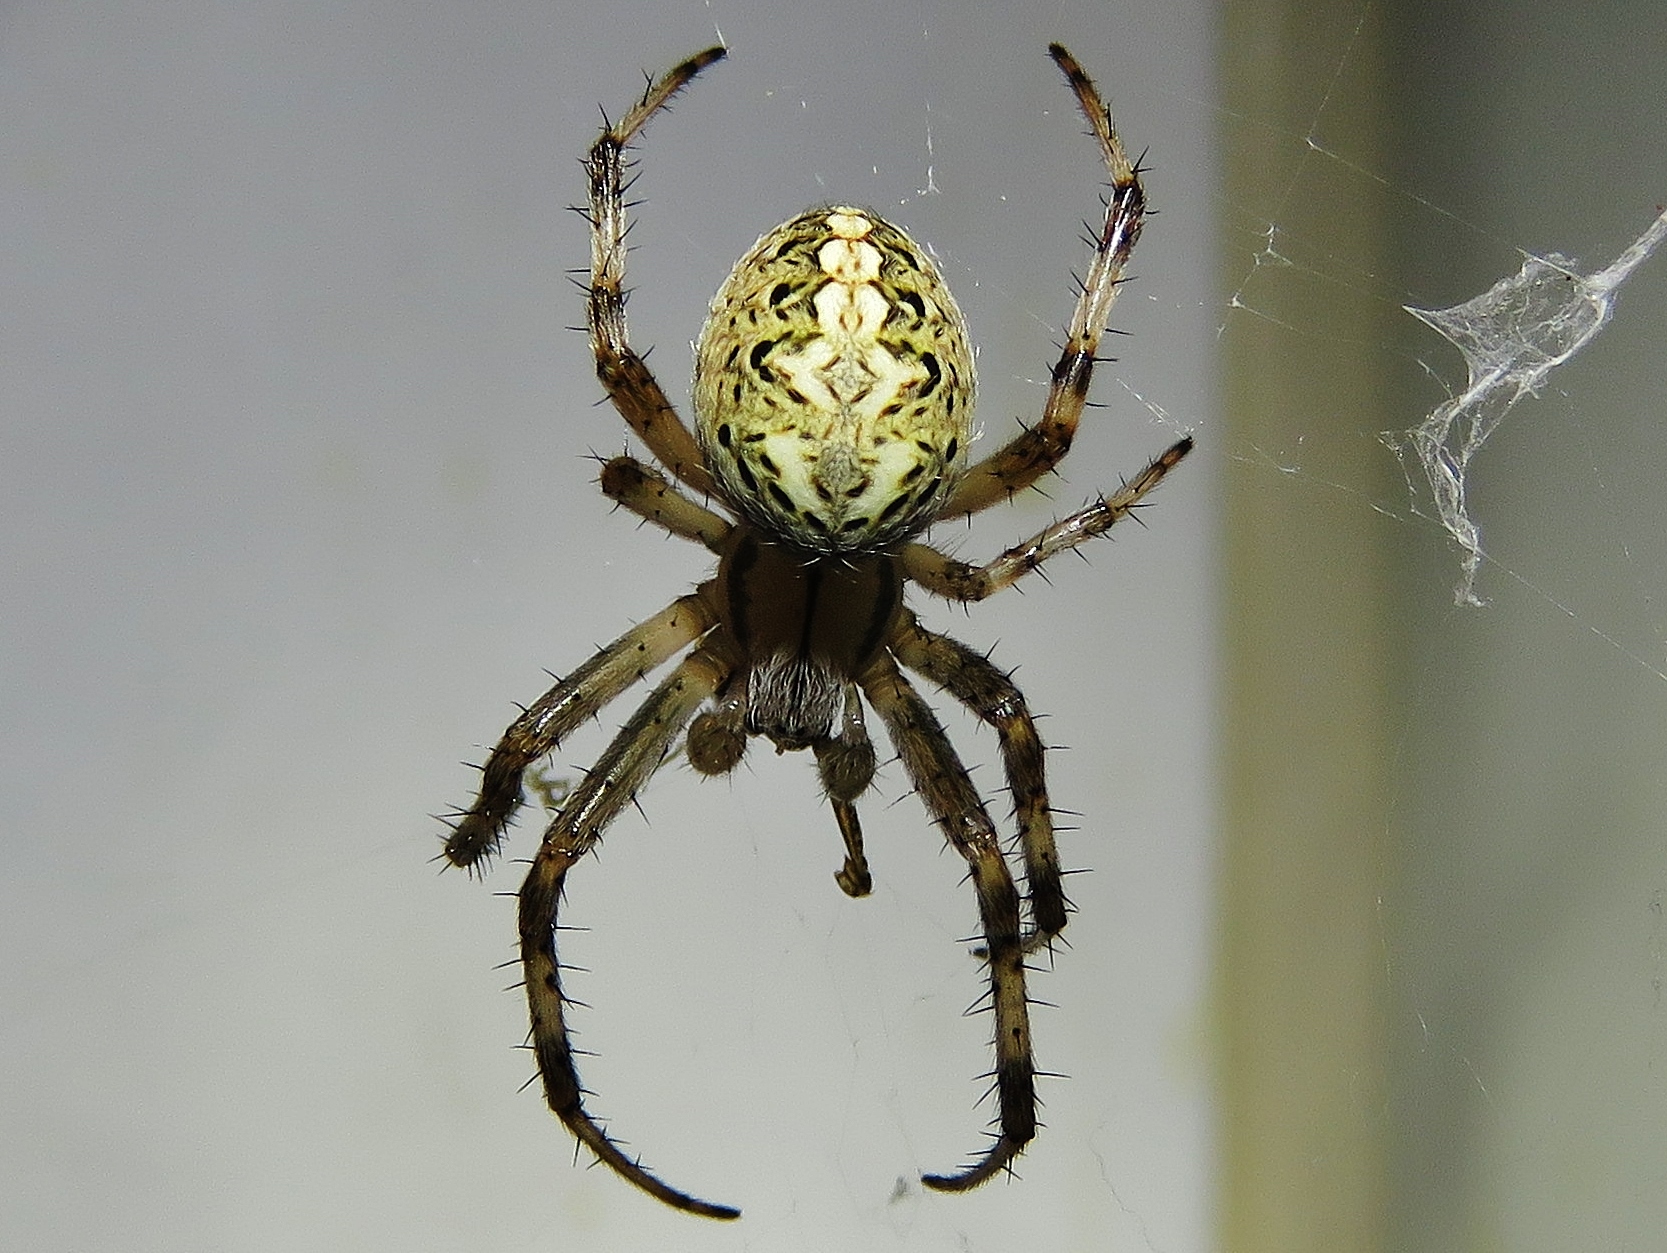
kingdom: Animalia
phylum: Arthropoda
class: Arachnida
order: Araneae
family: Araneidae
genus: Neoscona
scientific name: Neoscona oaxacensis
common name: Orb weavers
